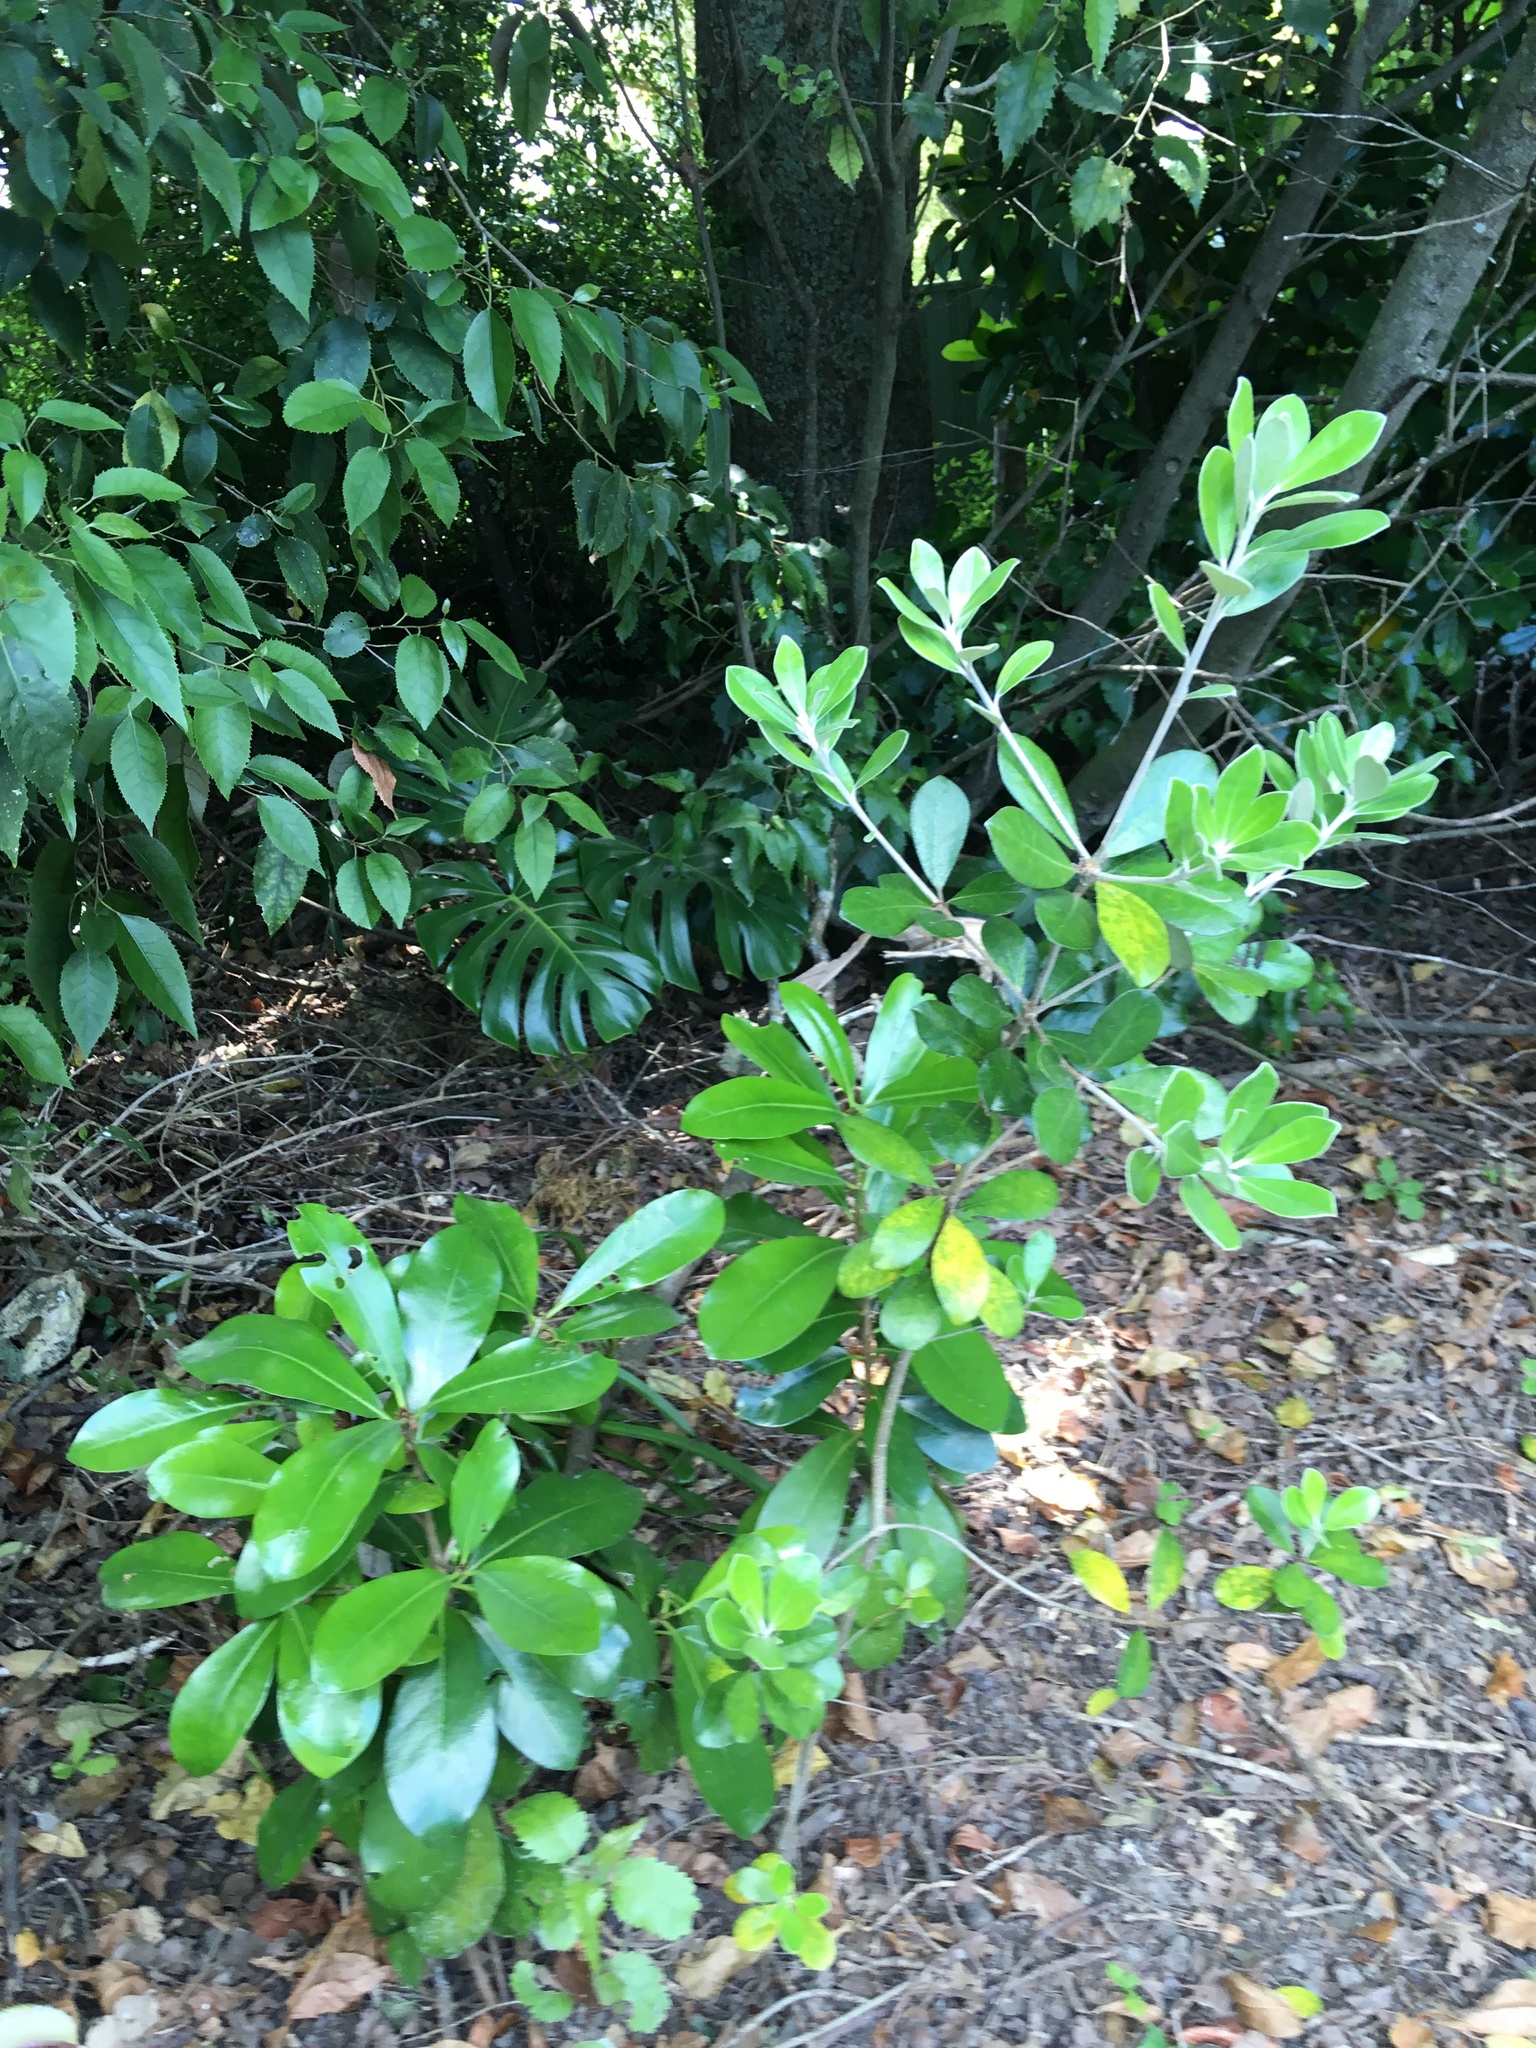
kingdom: Plantae
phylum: Tracheophyta
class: Magnoliopsida
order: Apiales
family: Pittosporaceae
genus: Pittosporum
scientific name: Pittosporum crassifolium
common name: Karo
